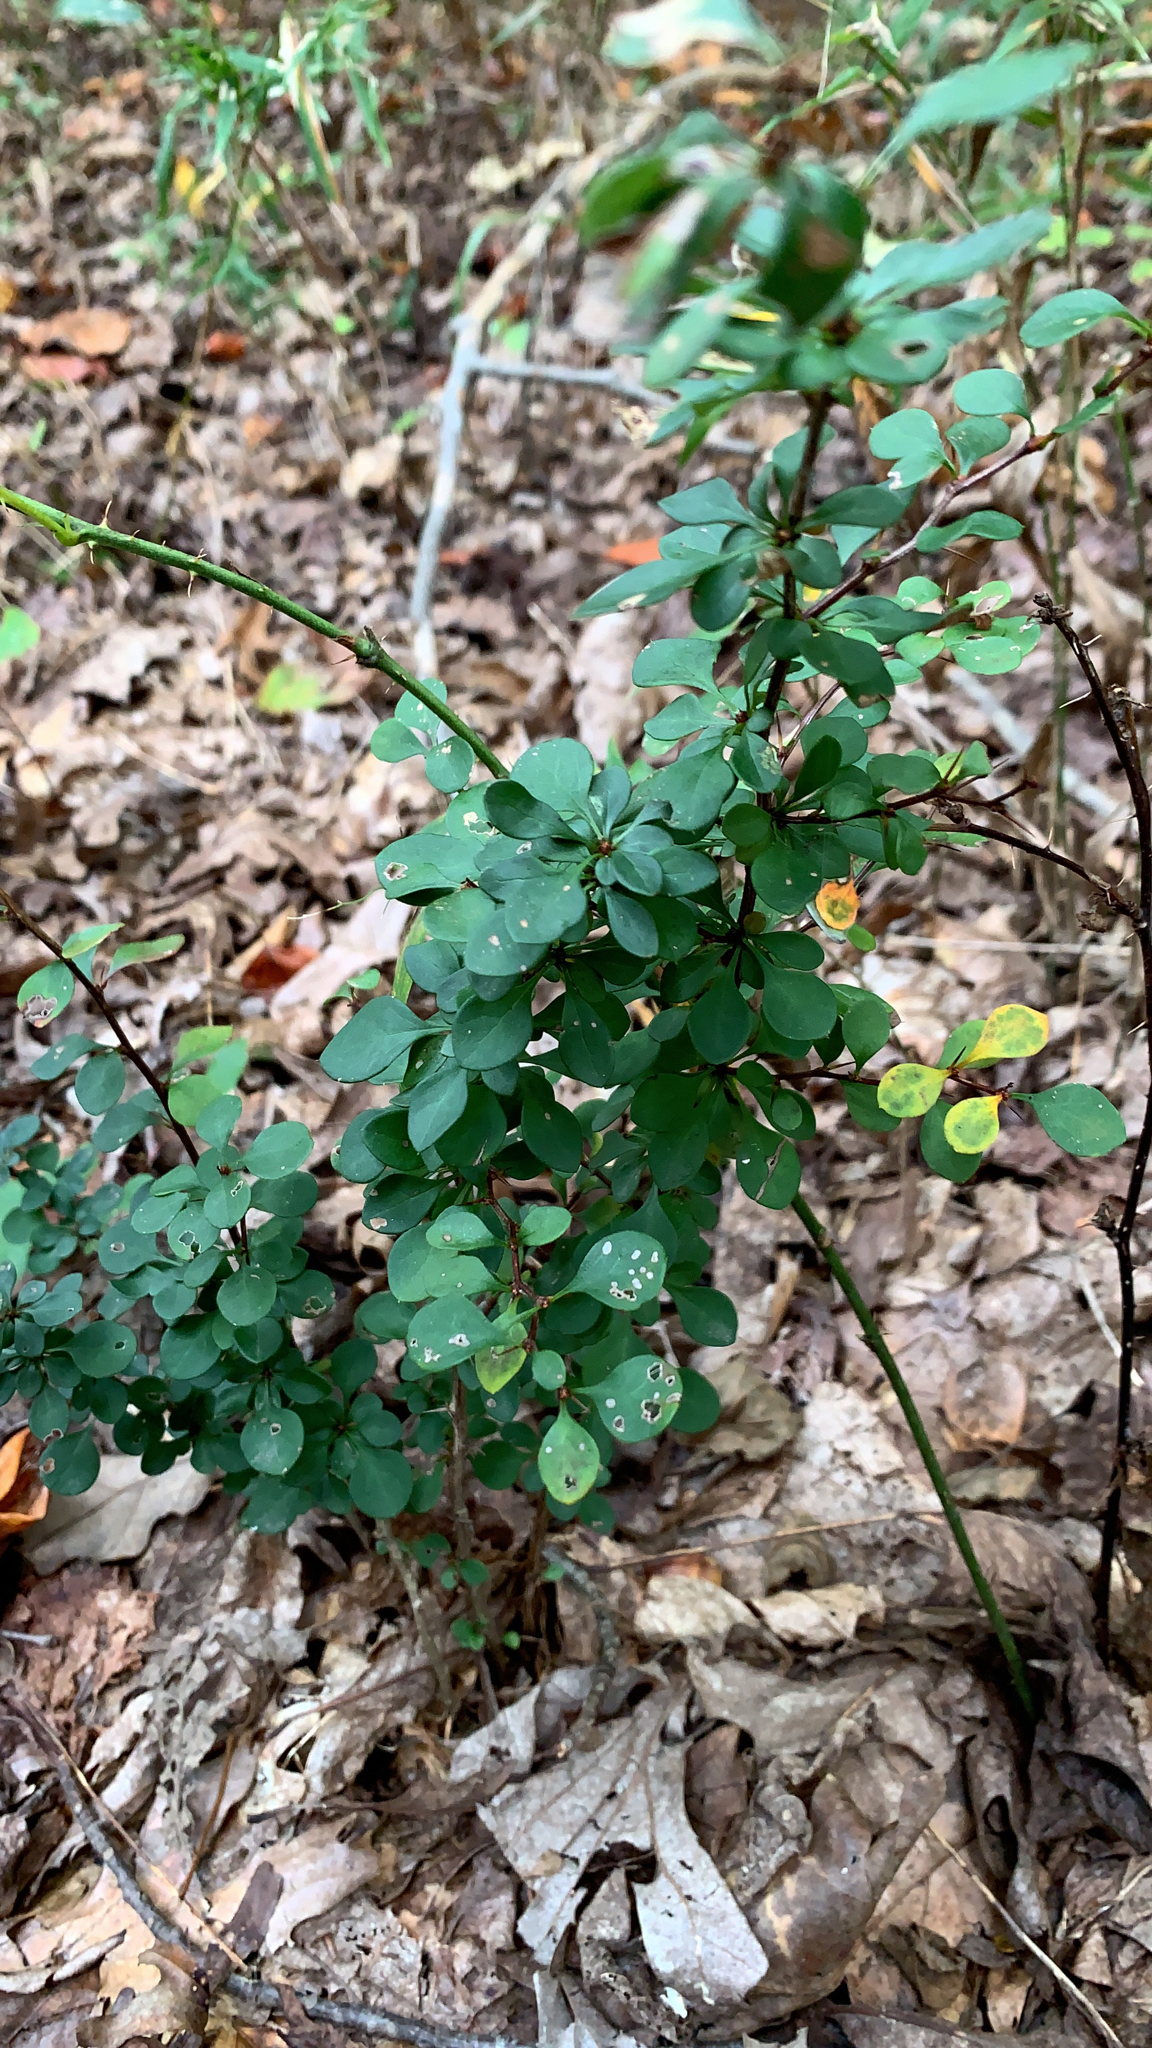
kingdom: Plantae
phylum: Tracheophyta
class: Magnoliopsida
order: Ranunculales
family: Berberidaceae
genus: Berberis
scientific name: Berberis thunbergii
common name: Japanese barberry
